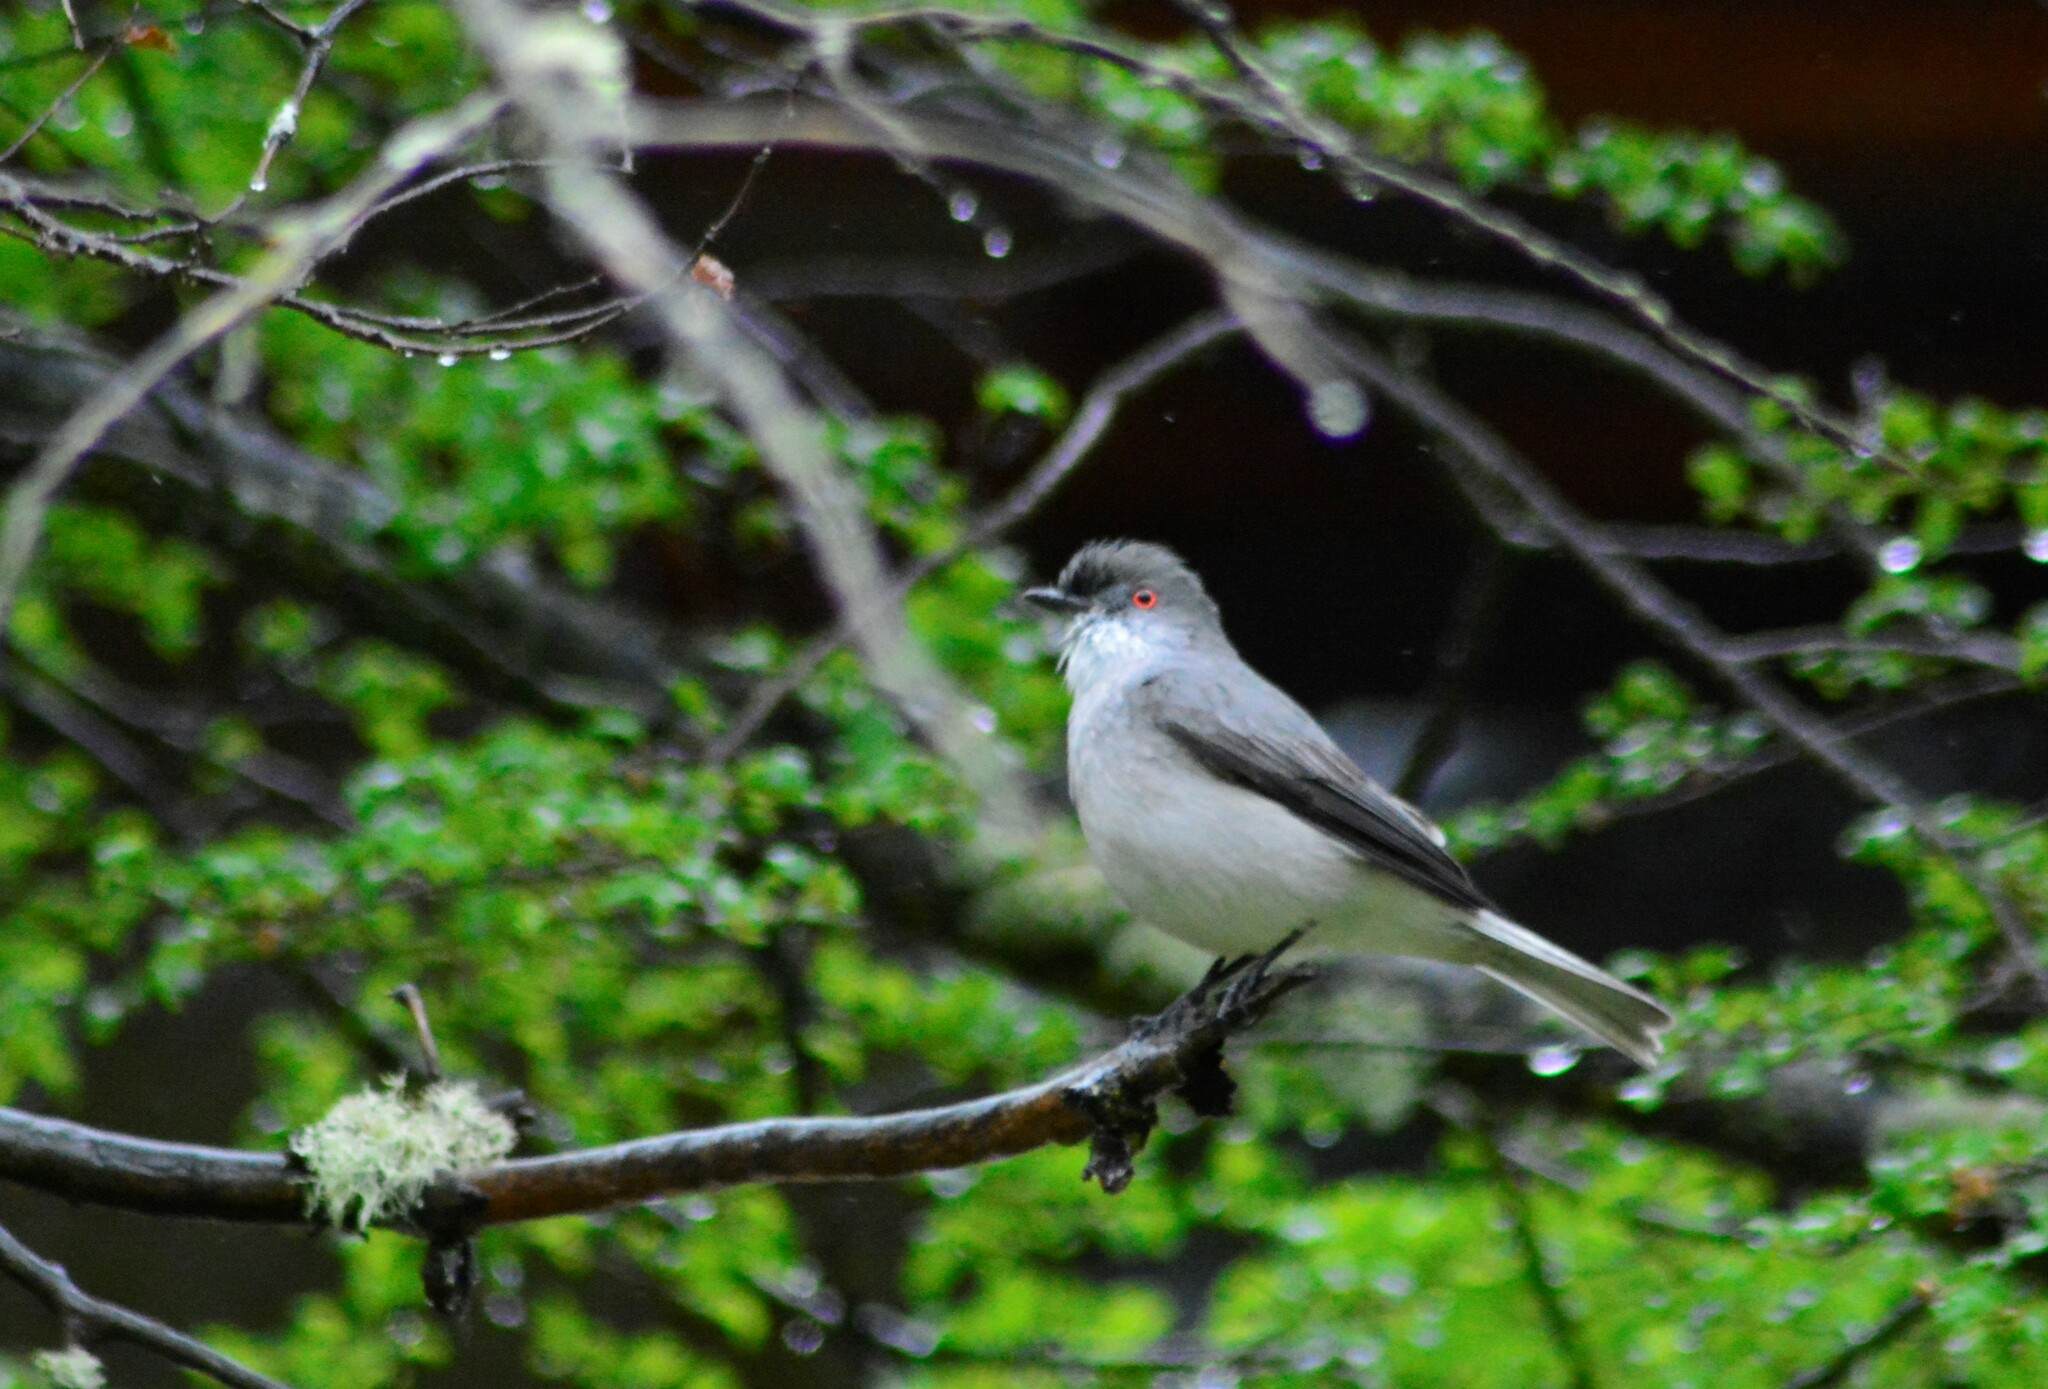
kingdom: Animalia
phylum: Chordata
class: Aves
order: Passeriformes
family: Tyrannidae
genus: Xolmis
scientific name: Xolmis pyrope
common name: Fire-eyed diucon
